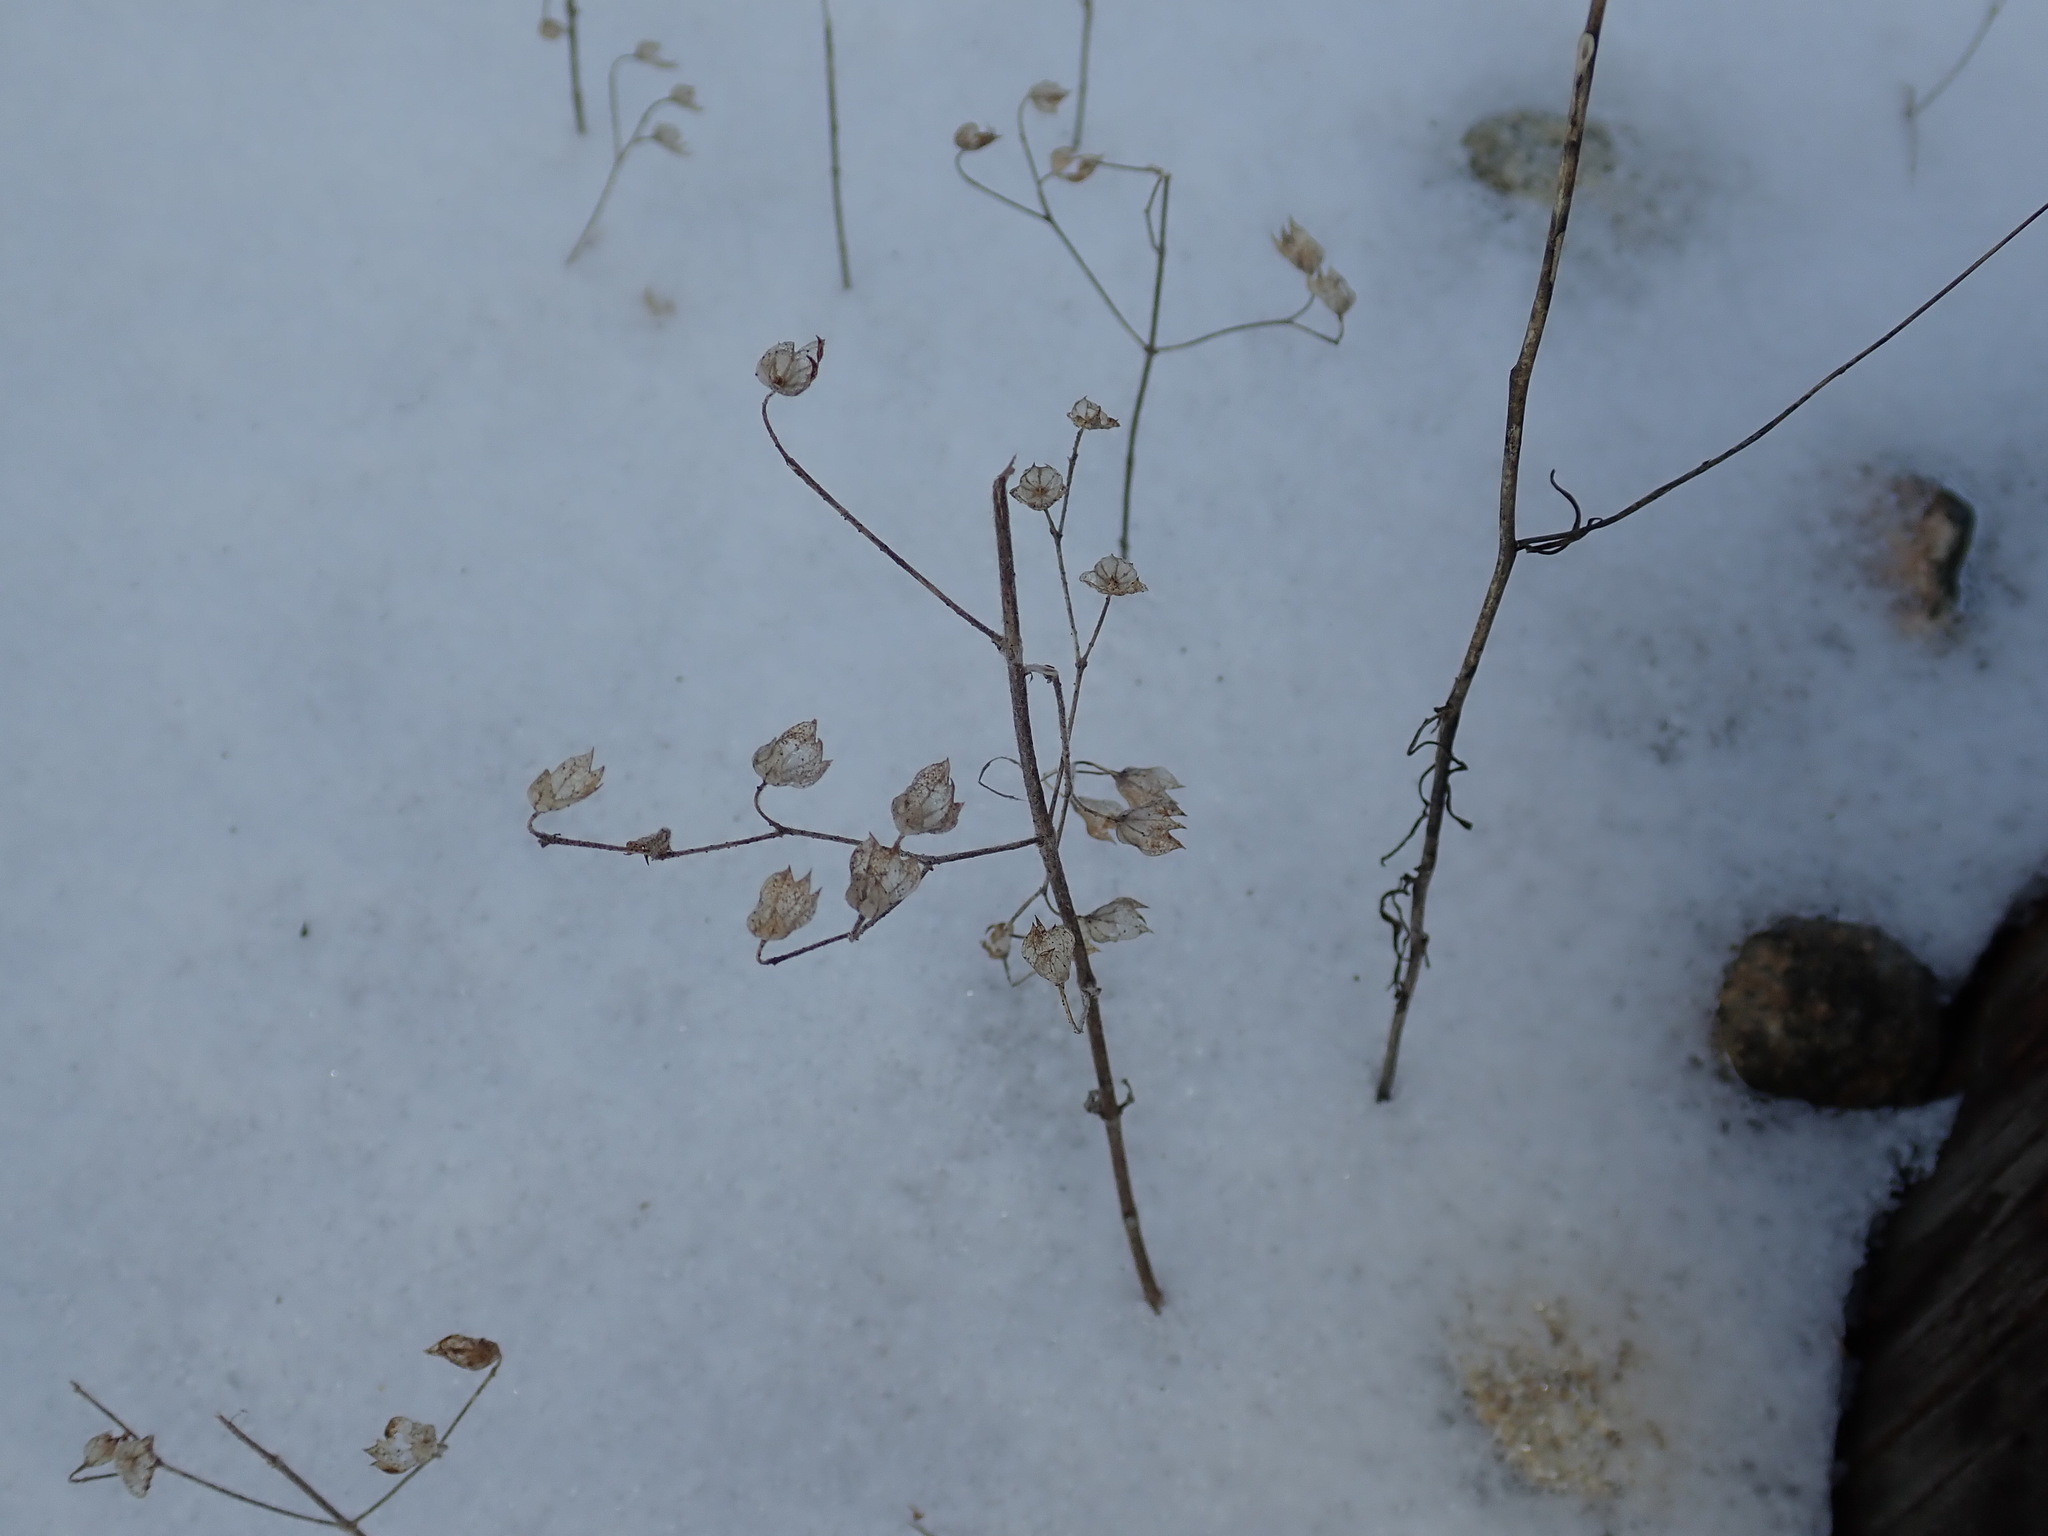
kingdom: Plantae
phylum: Tracheophyta
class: Magnoliopsida
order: Lamiales
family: Lamiaceae
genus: Trichostema
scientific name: Trichostema dichotomum
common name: Bastard pennyroyal
